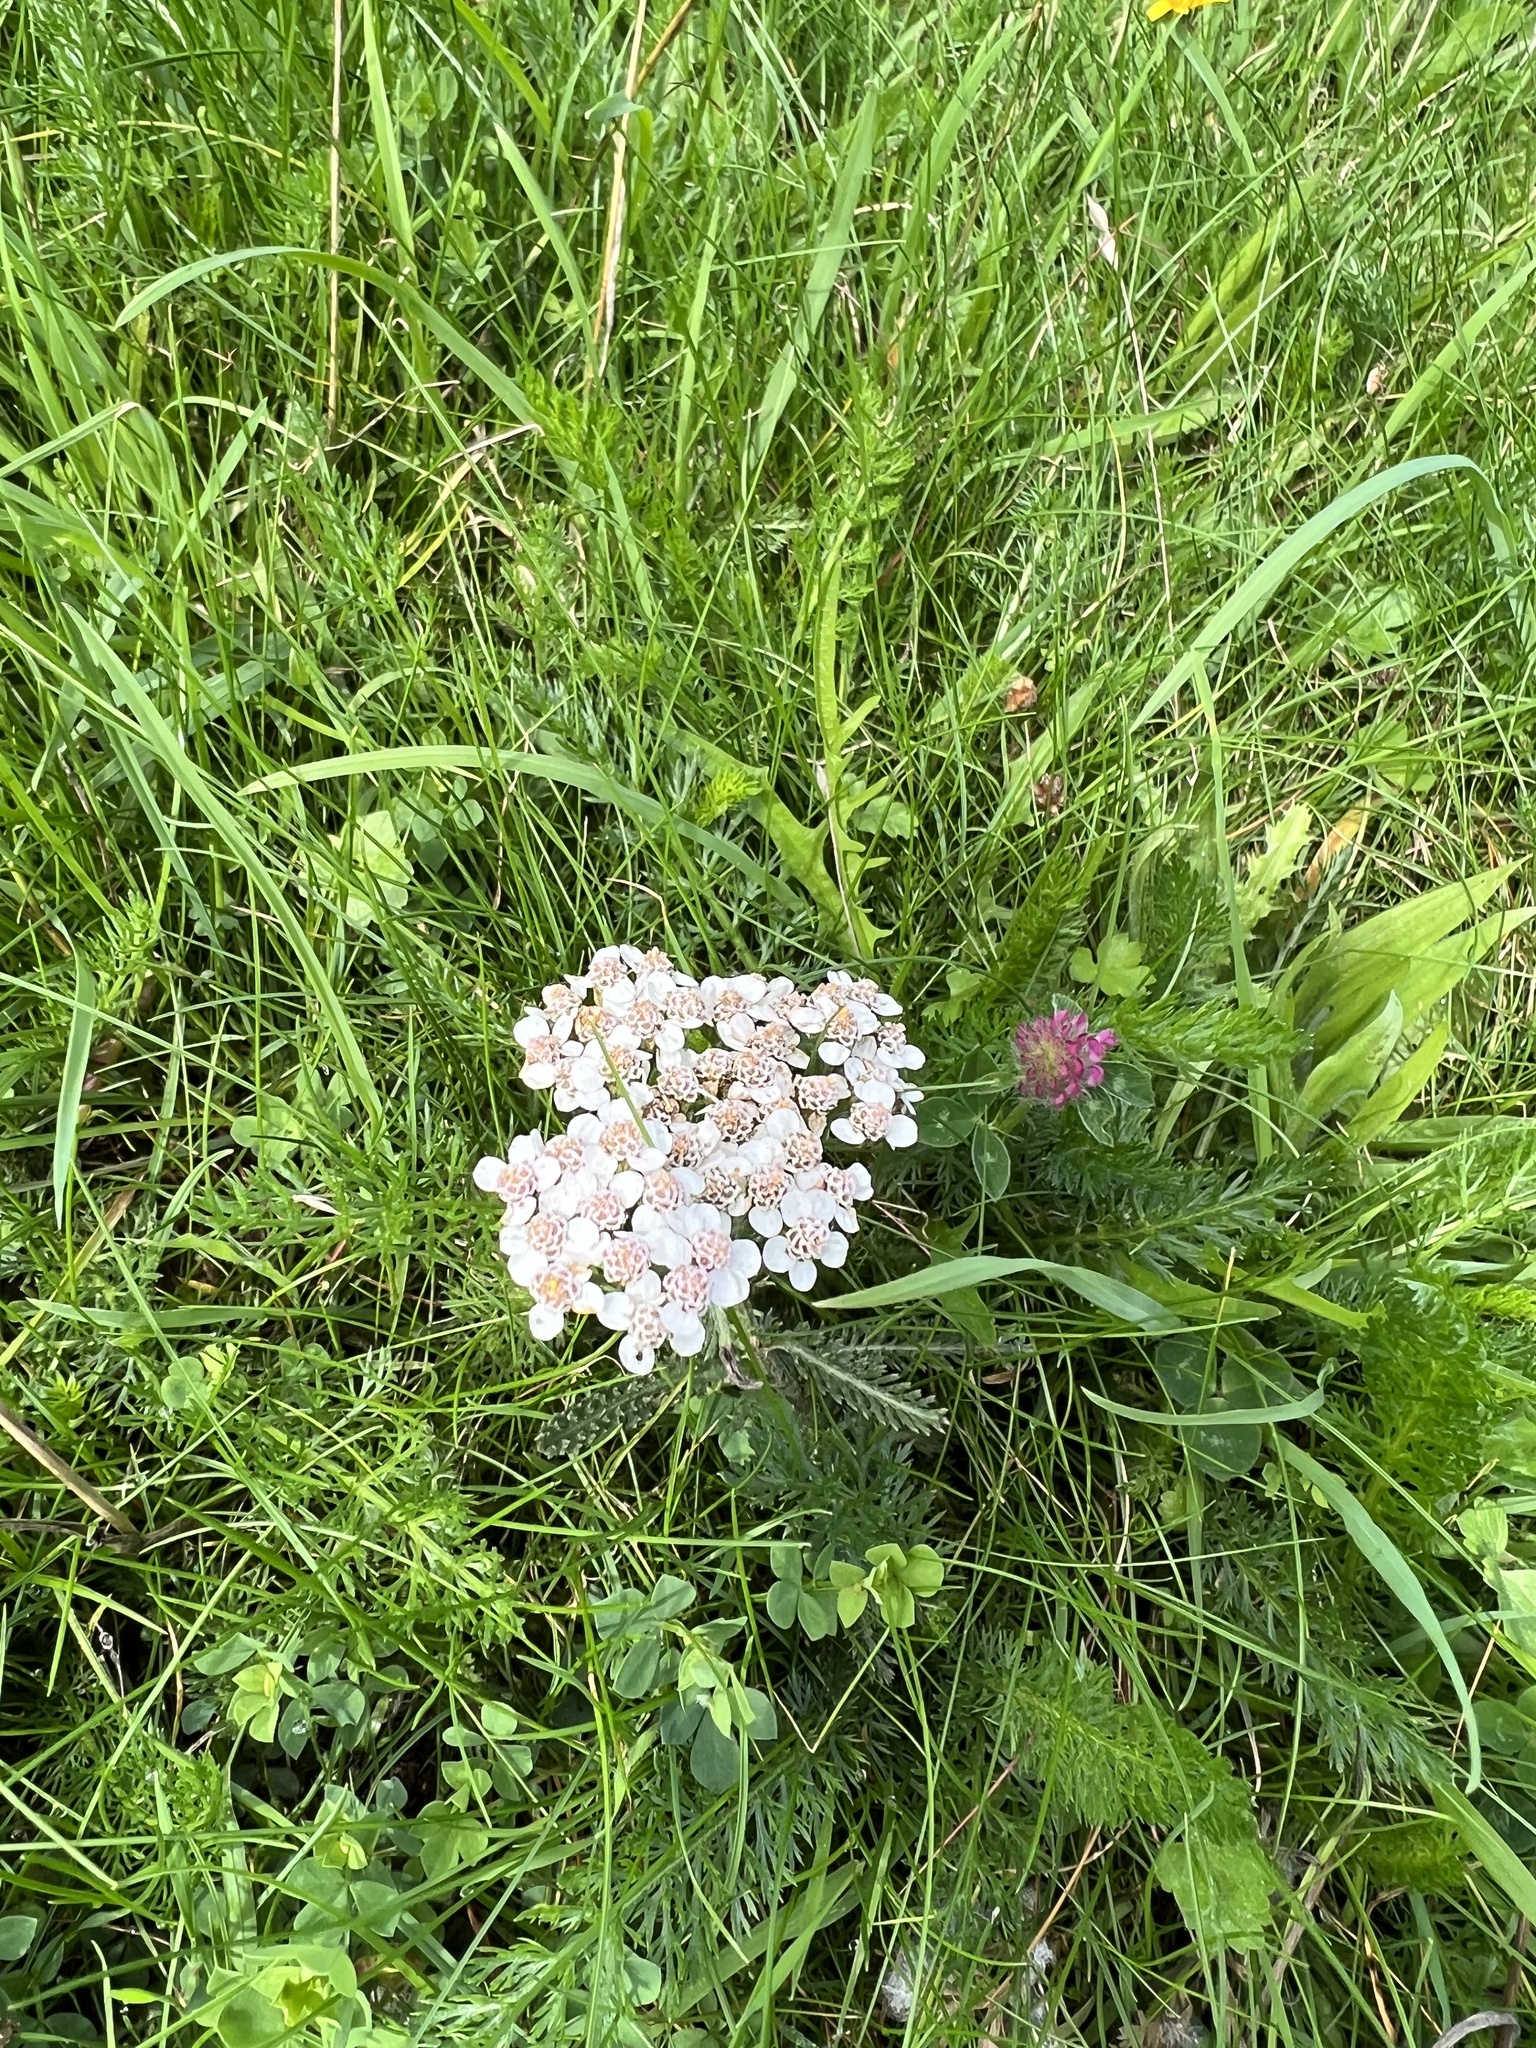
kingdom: Plantae
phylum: Tracheophyta
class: Magnoliopsida
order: Asterales
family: Asteraceae
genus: Achillea
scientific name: Achillea millefolium
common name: Yarrow
